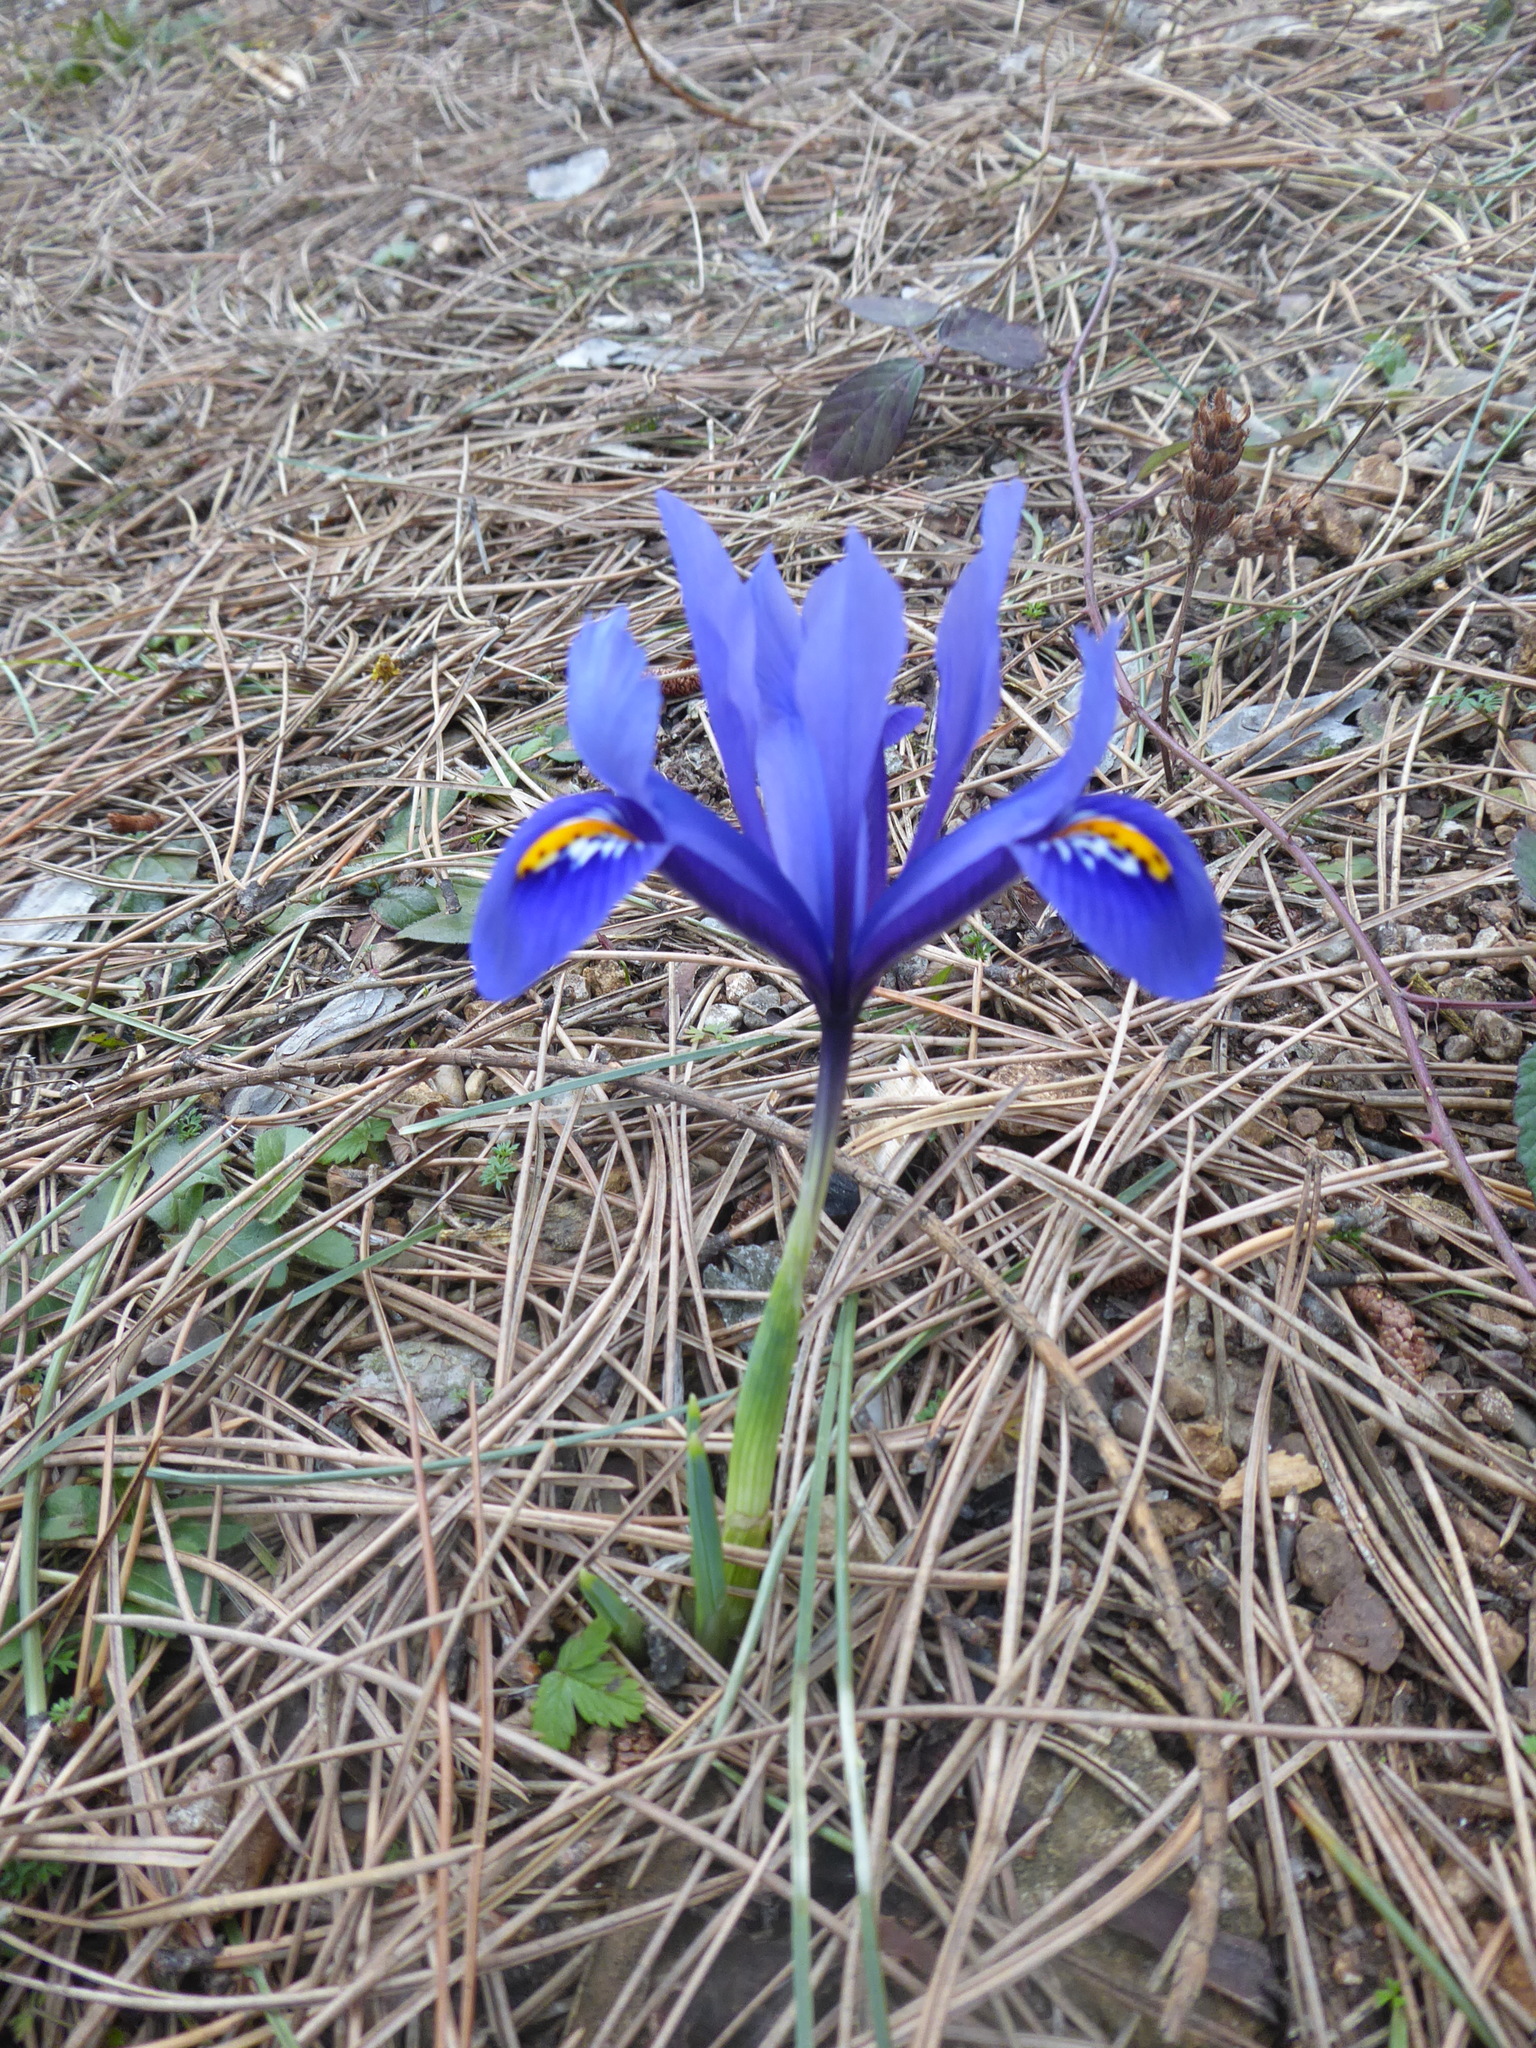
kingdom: Plantae
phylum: Tracheophyta
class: Liliopsida
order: Asparagales
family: Iridaceae
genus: Iris
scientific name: Iris reticulata
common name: Netted iris
